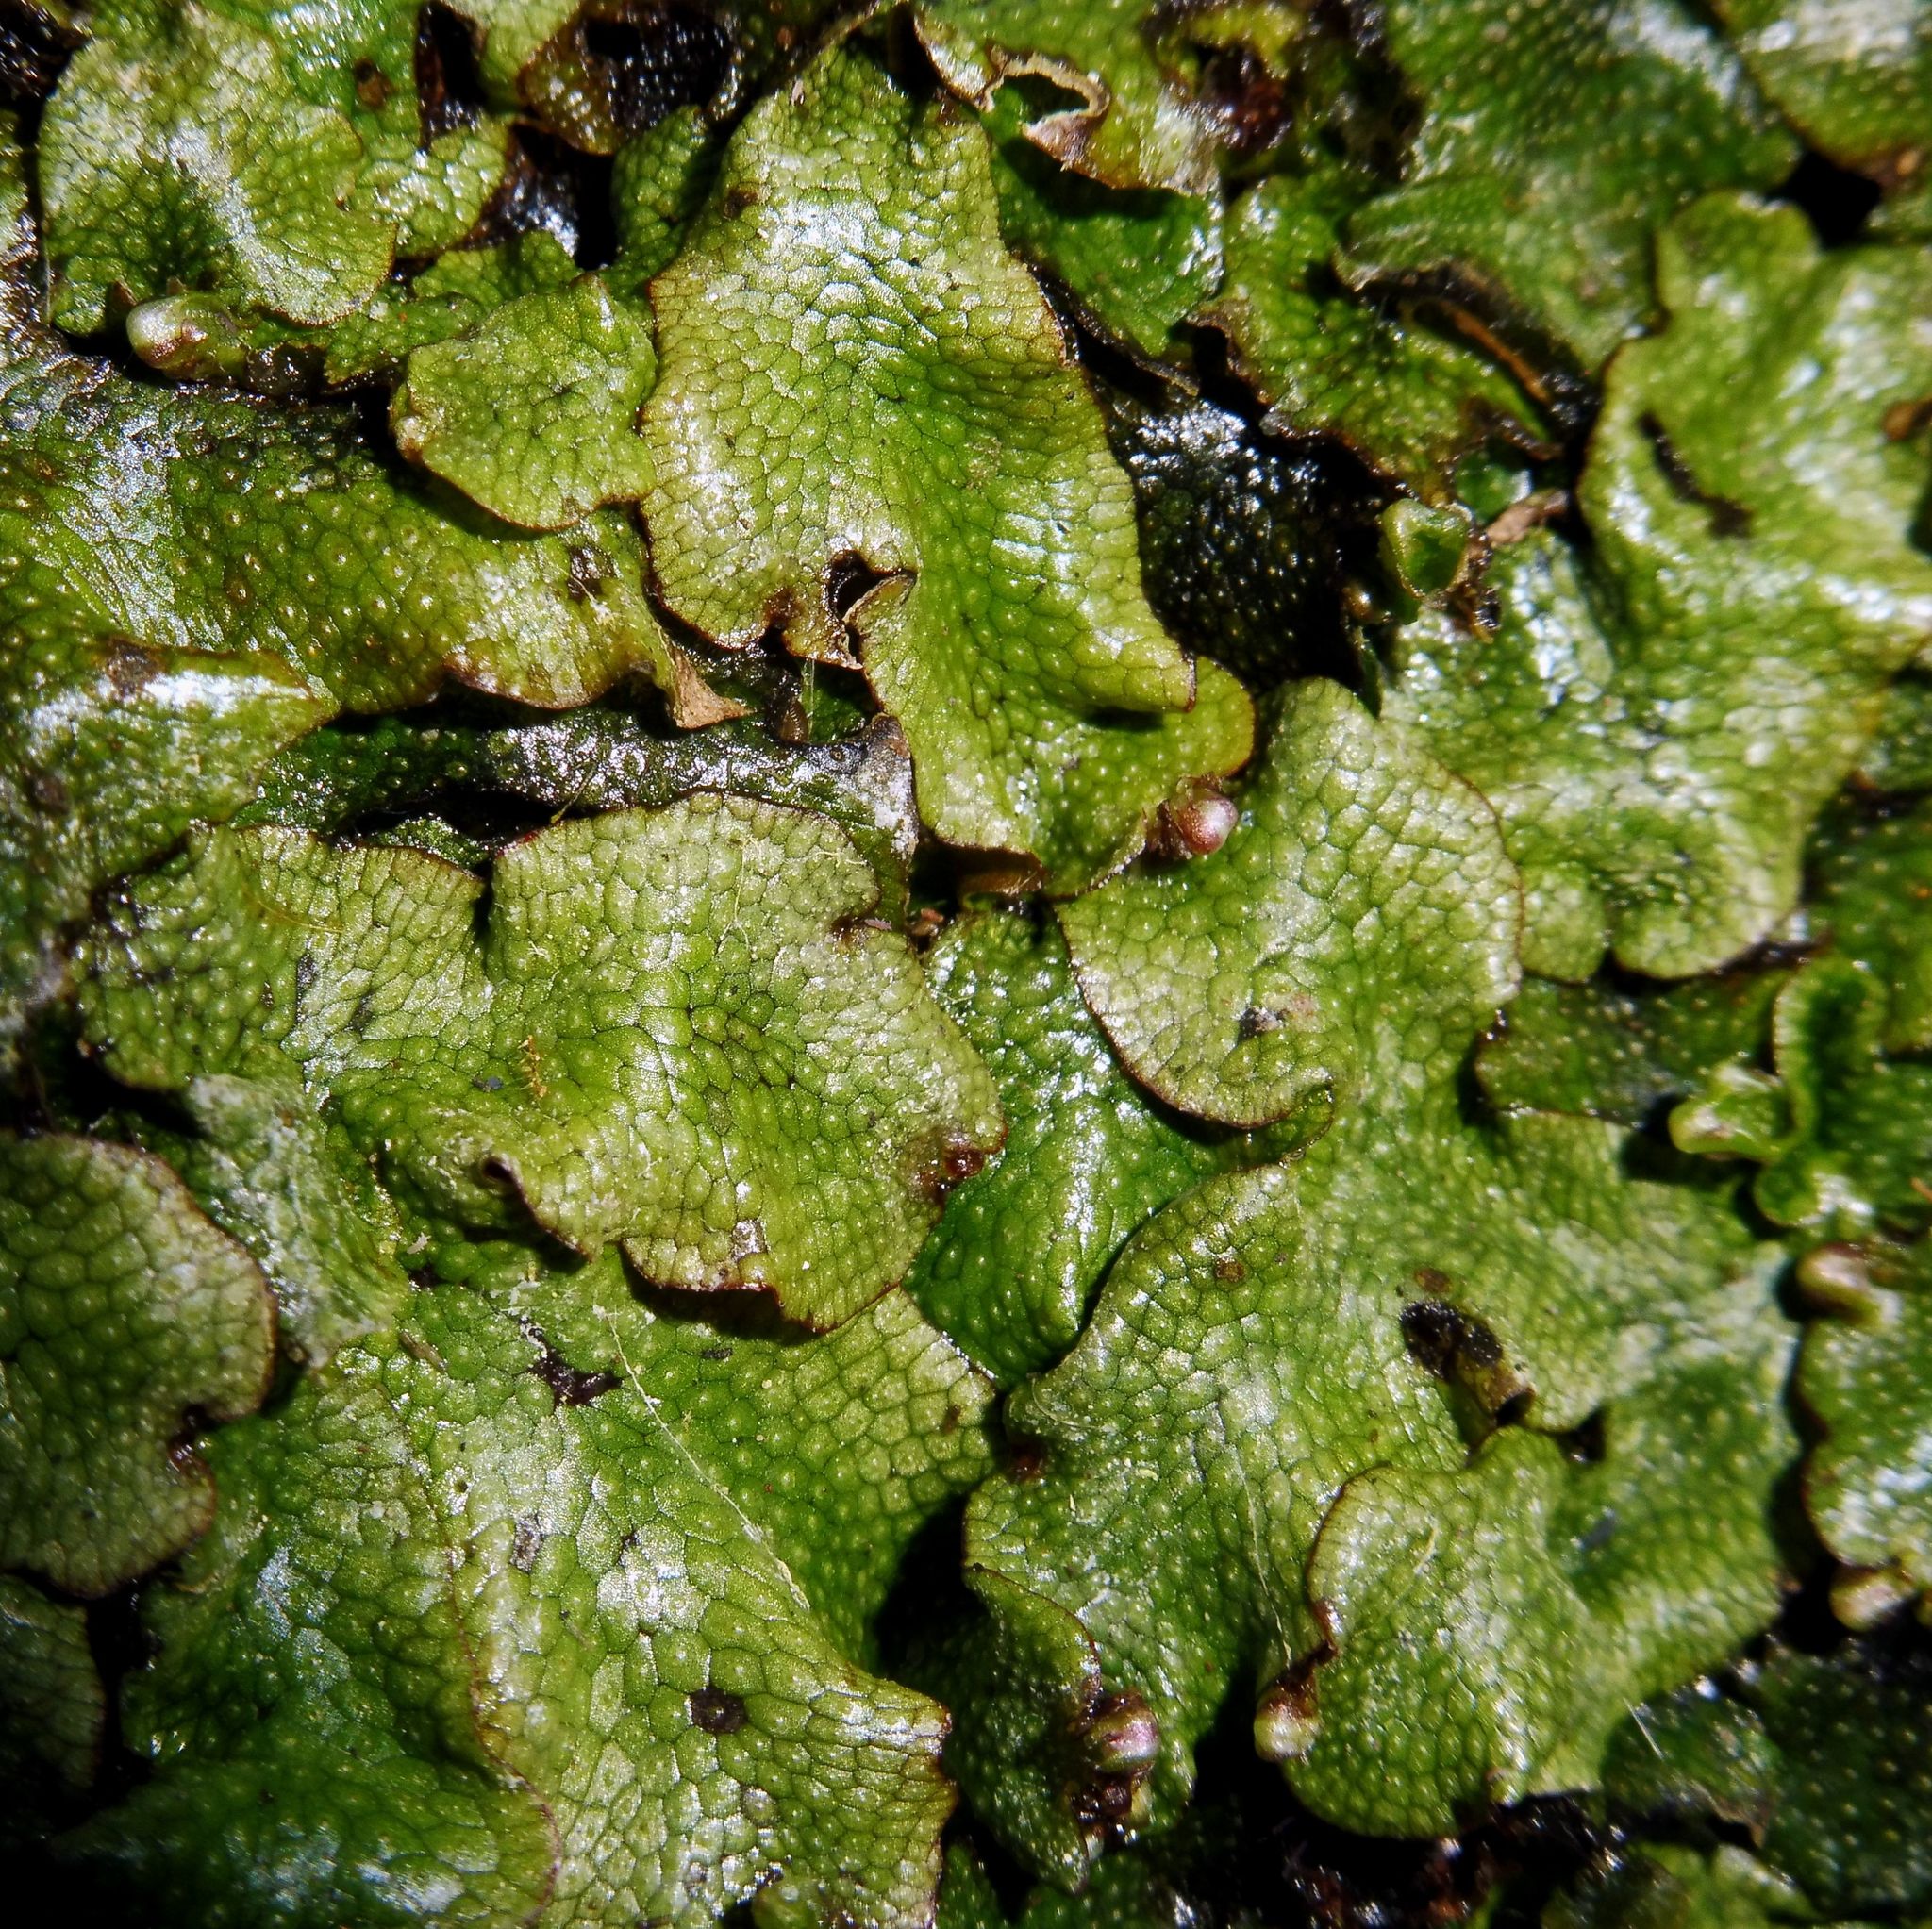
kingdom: Plantae
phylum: Marchantiophyta
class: Marchantiopsida
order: Marchantiales
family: Conocephalaceae
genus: Conocephalum
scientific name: Conocephalum conicum
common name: Great scented liverwort
